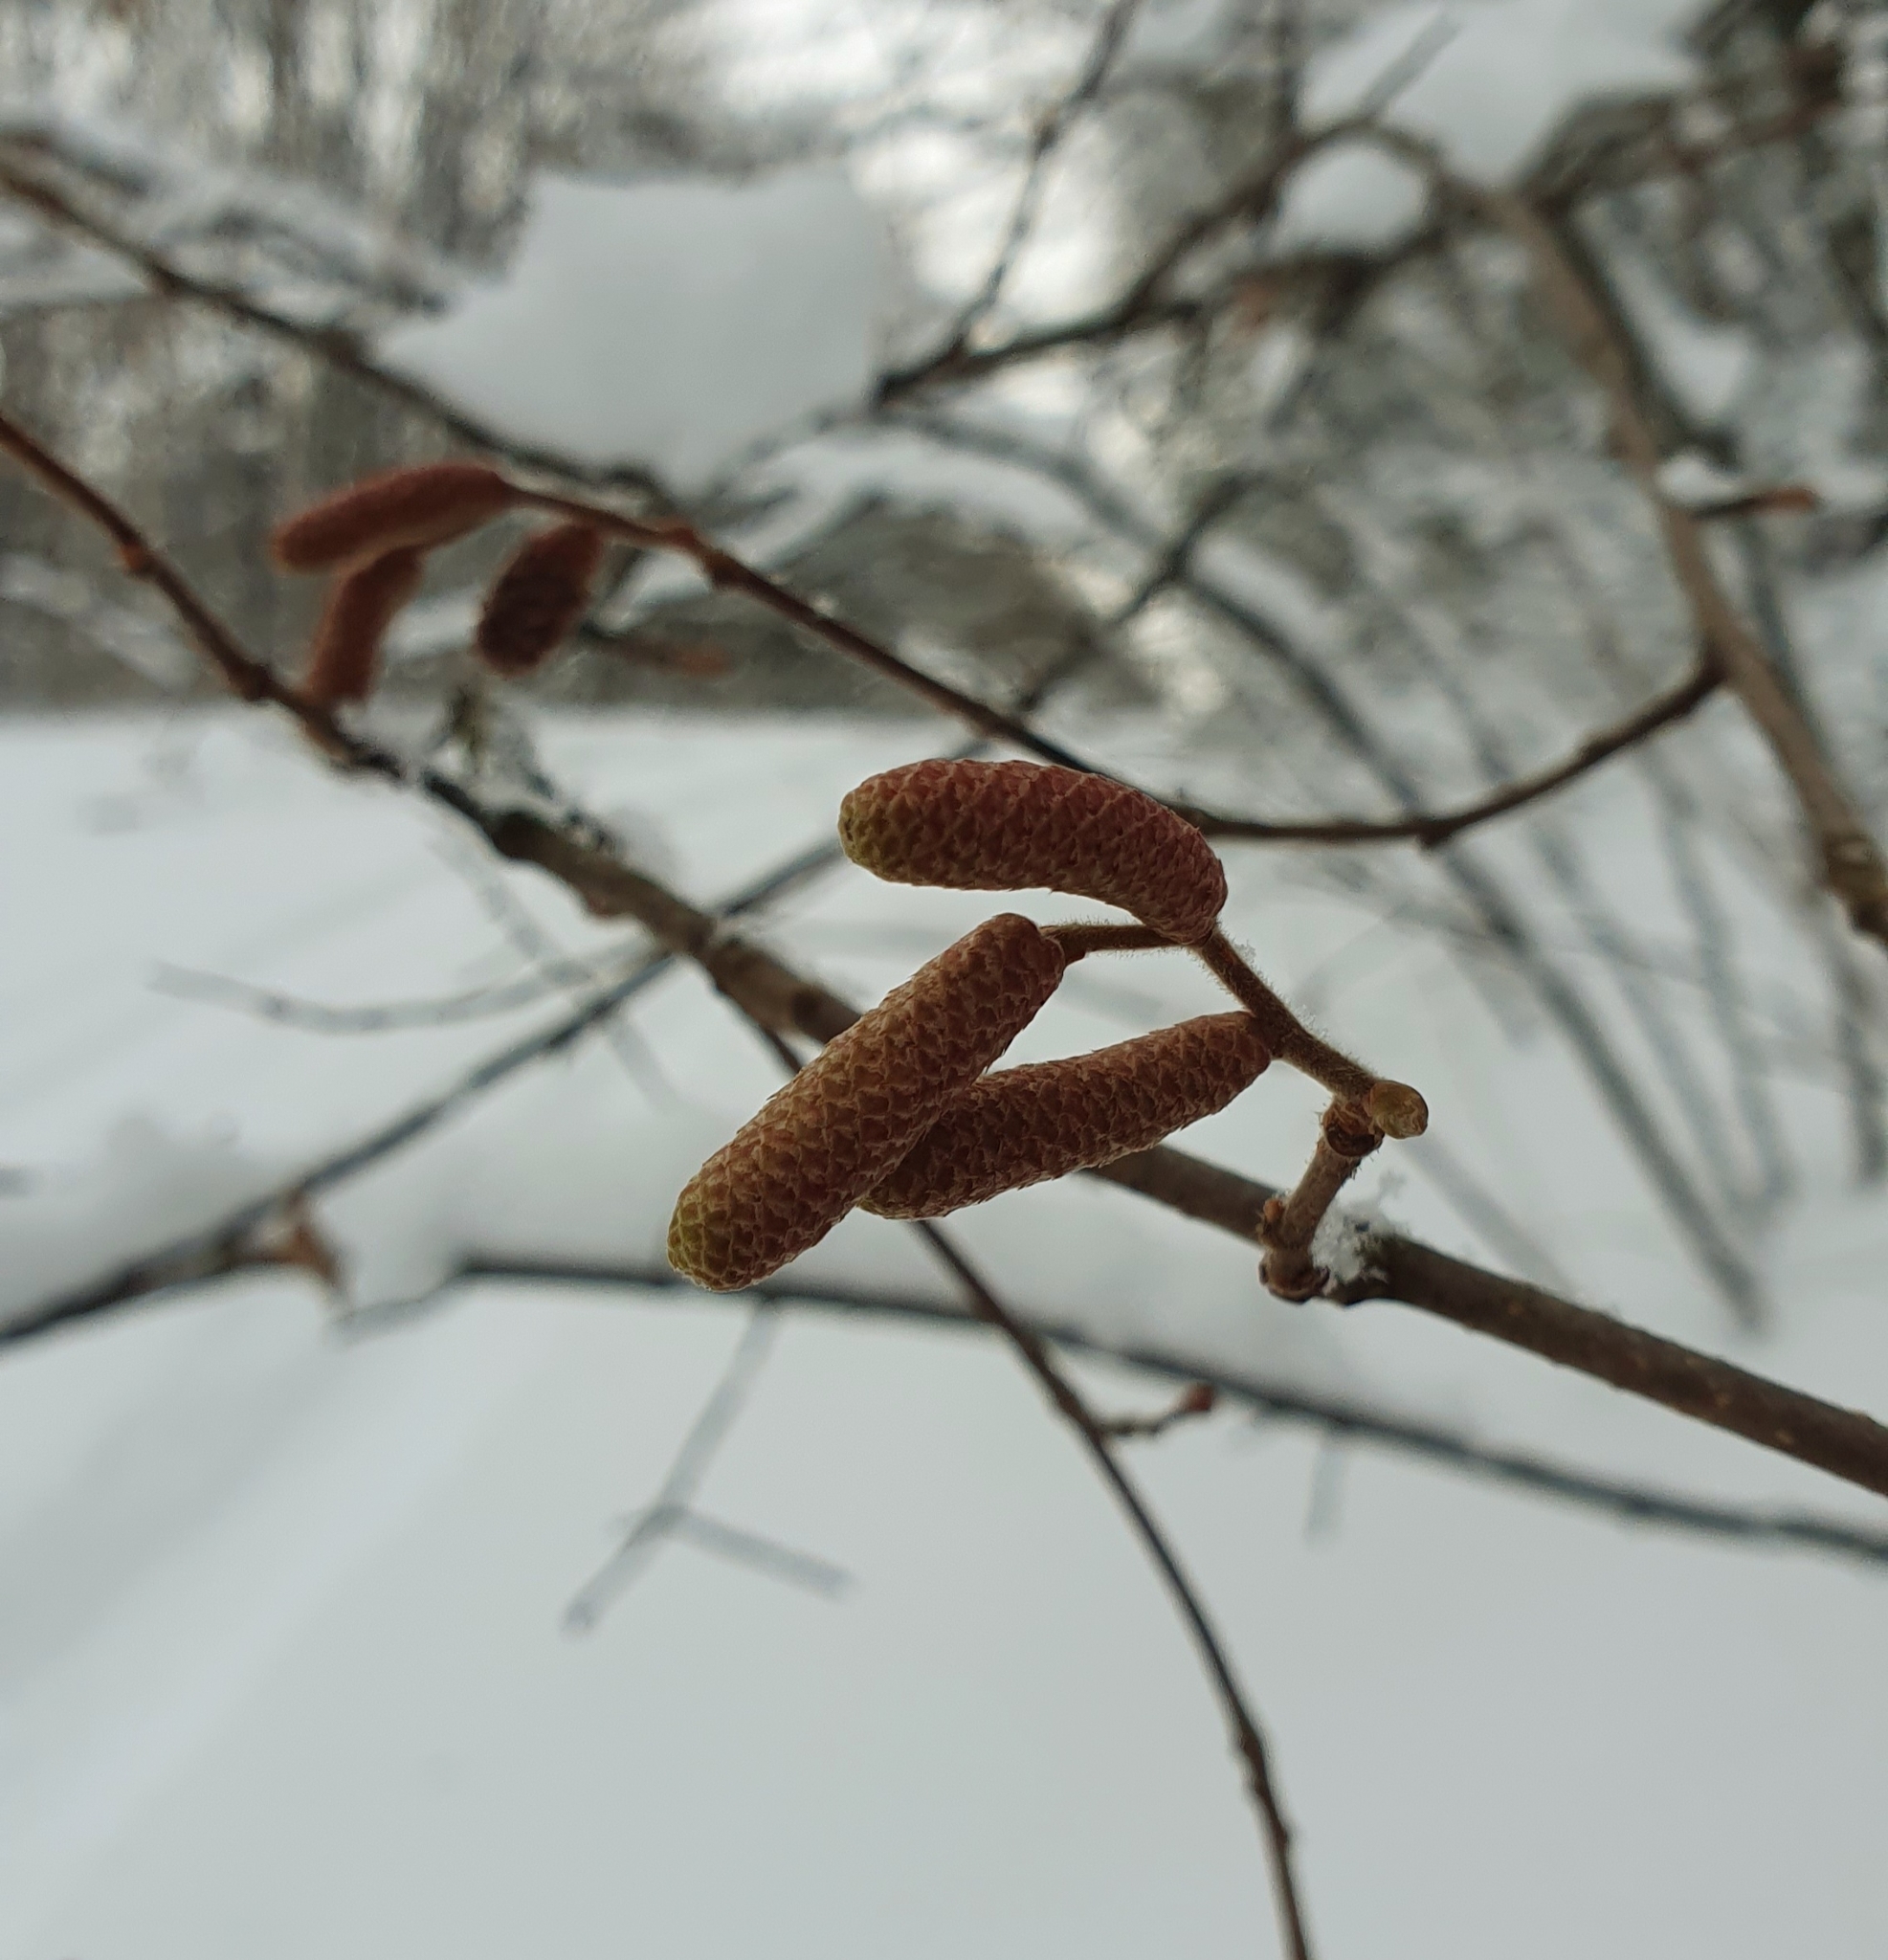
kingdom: Plantae
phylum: Tracheophyta
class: Magnoliopsida
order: Fagales
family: Betulaceae
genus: Corylus
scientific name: Corylus avellana
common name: European hazel
